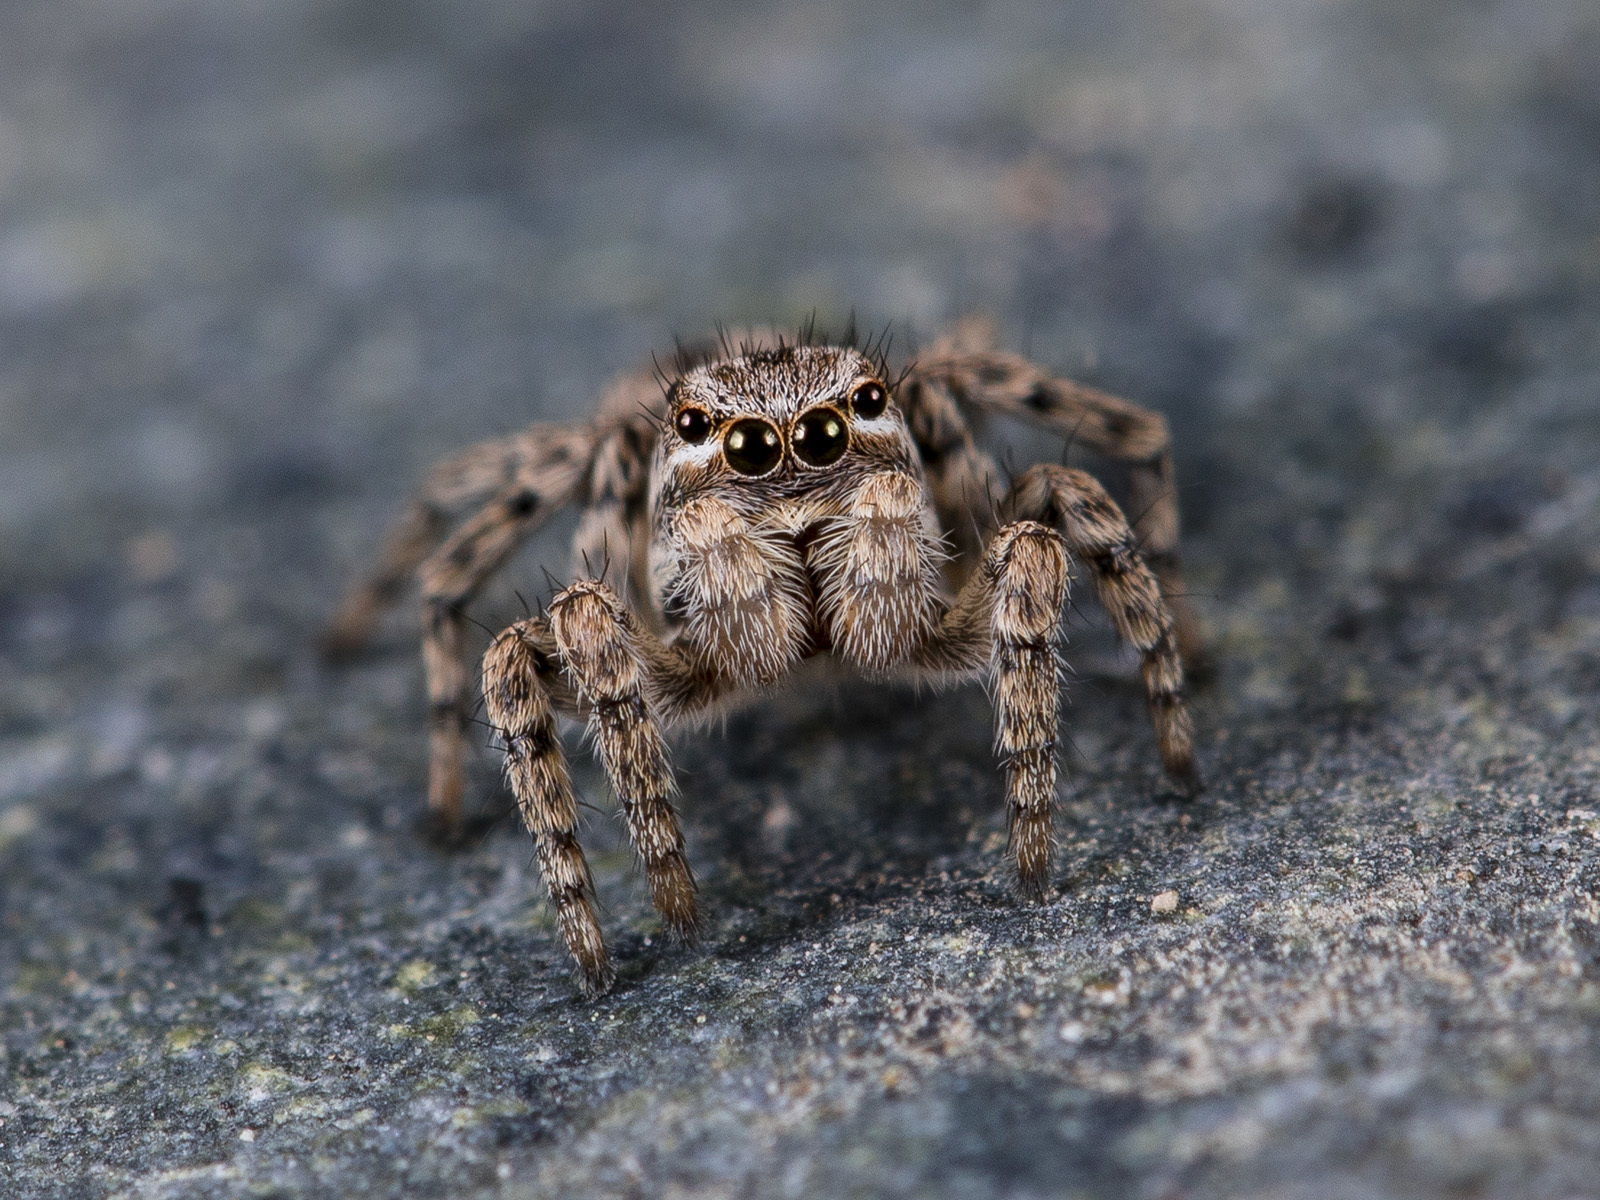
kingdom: Animalia
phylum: Arthropoda
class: Arachnida
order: Araneae
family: Salticidae
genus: Aelurillus
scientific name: Aelurillus v-insignitus
